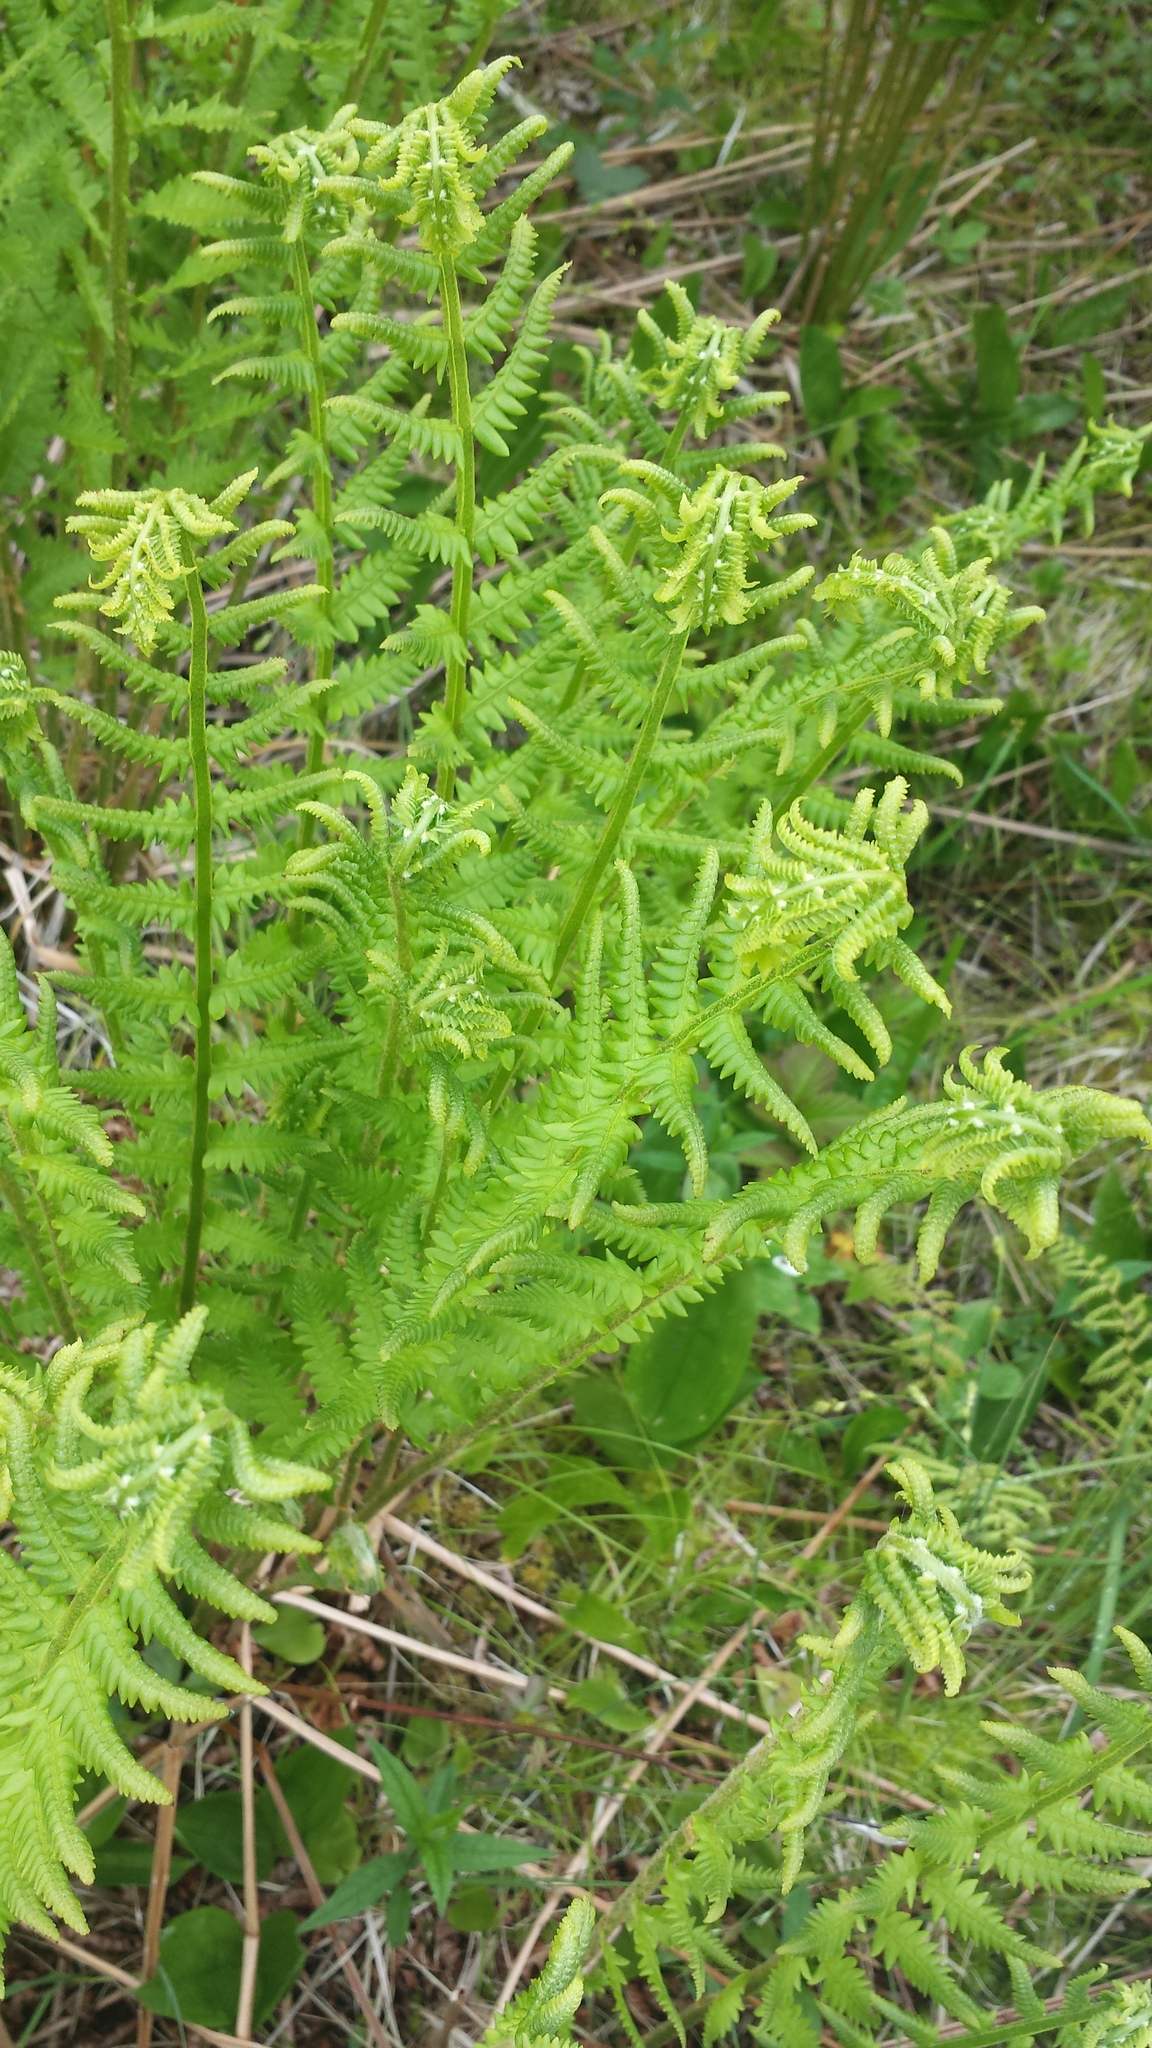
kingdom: Plantae
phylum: Tracheophyta
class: Polypodiopsida
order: Osmundales
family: Osmundaceae
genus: Osmundastrum
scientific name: Osmundastrum cinnamomeum
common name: Cinnamon fern
